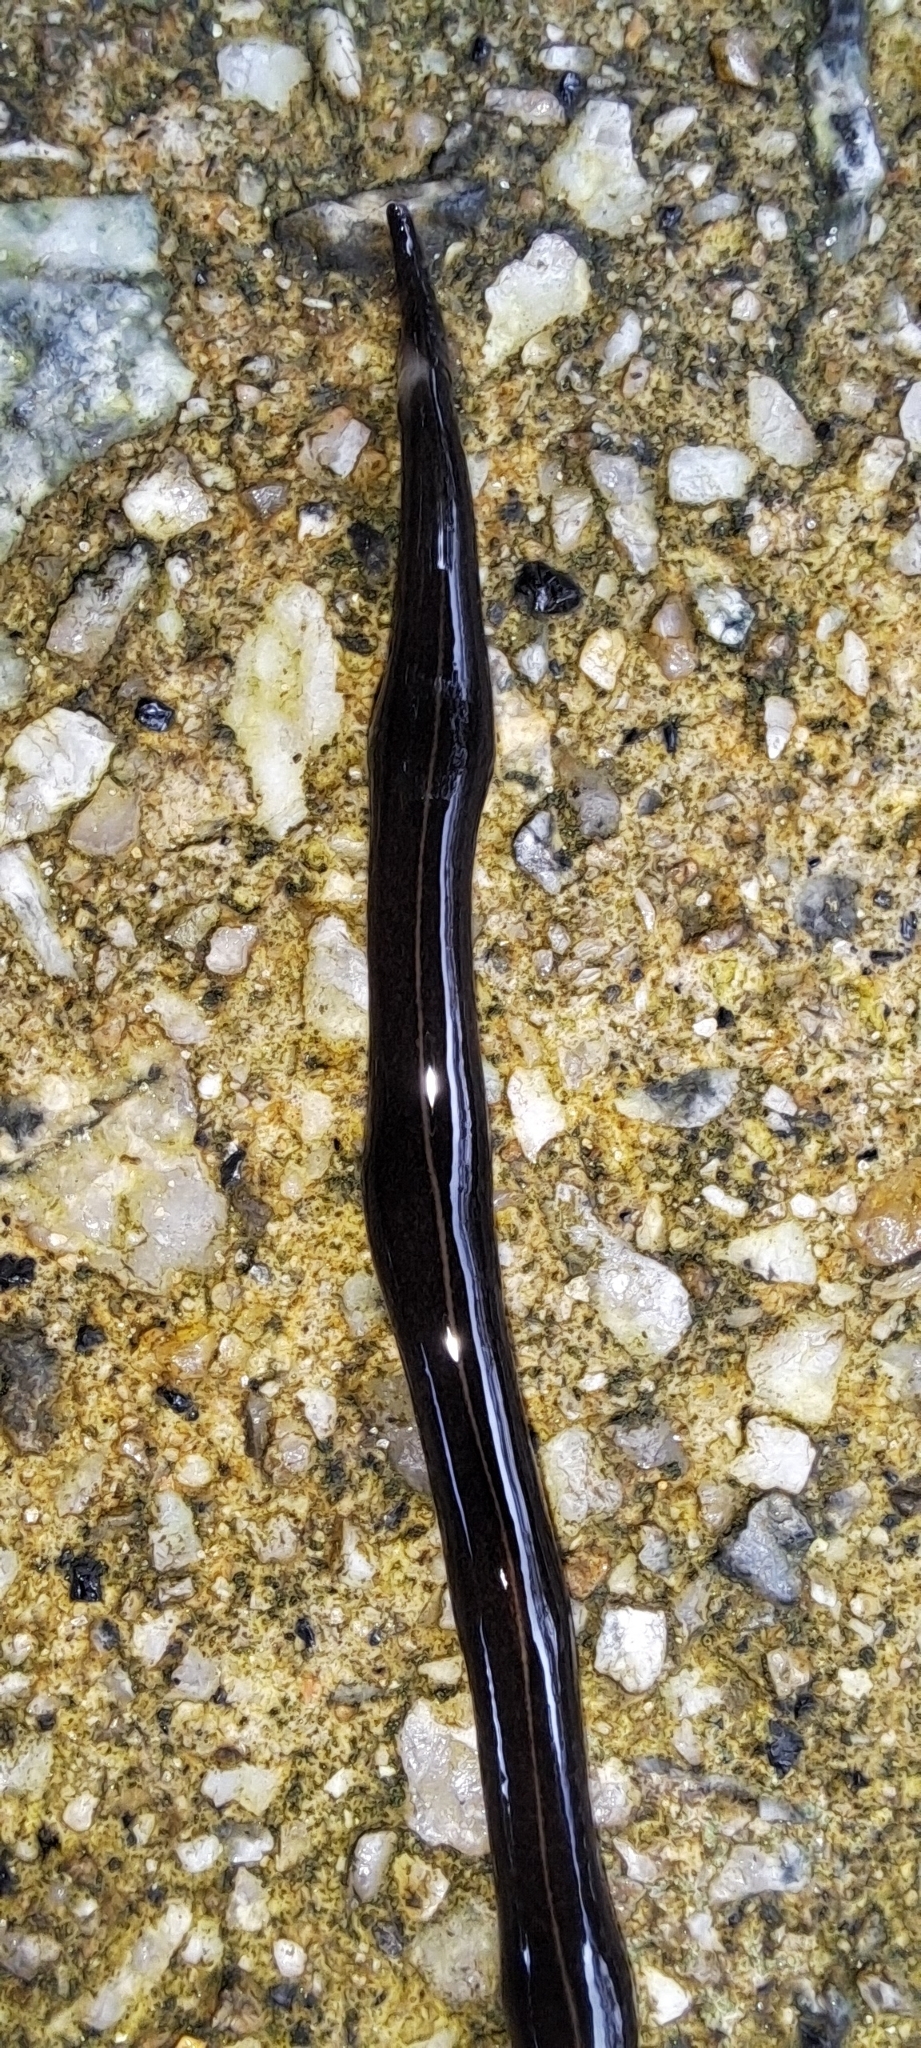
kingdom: Animalia
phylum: Platyhelminthes
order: Tricladida
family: Geoplanidae
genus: Platydemus
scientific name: Platydemus manokwari
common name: New guinea flatworm
